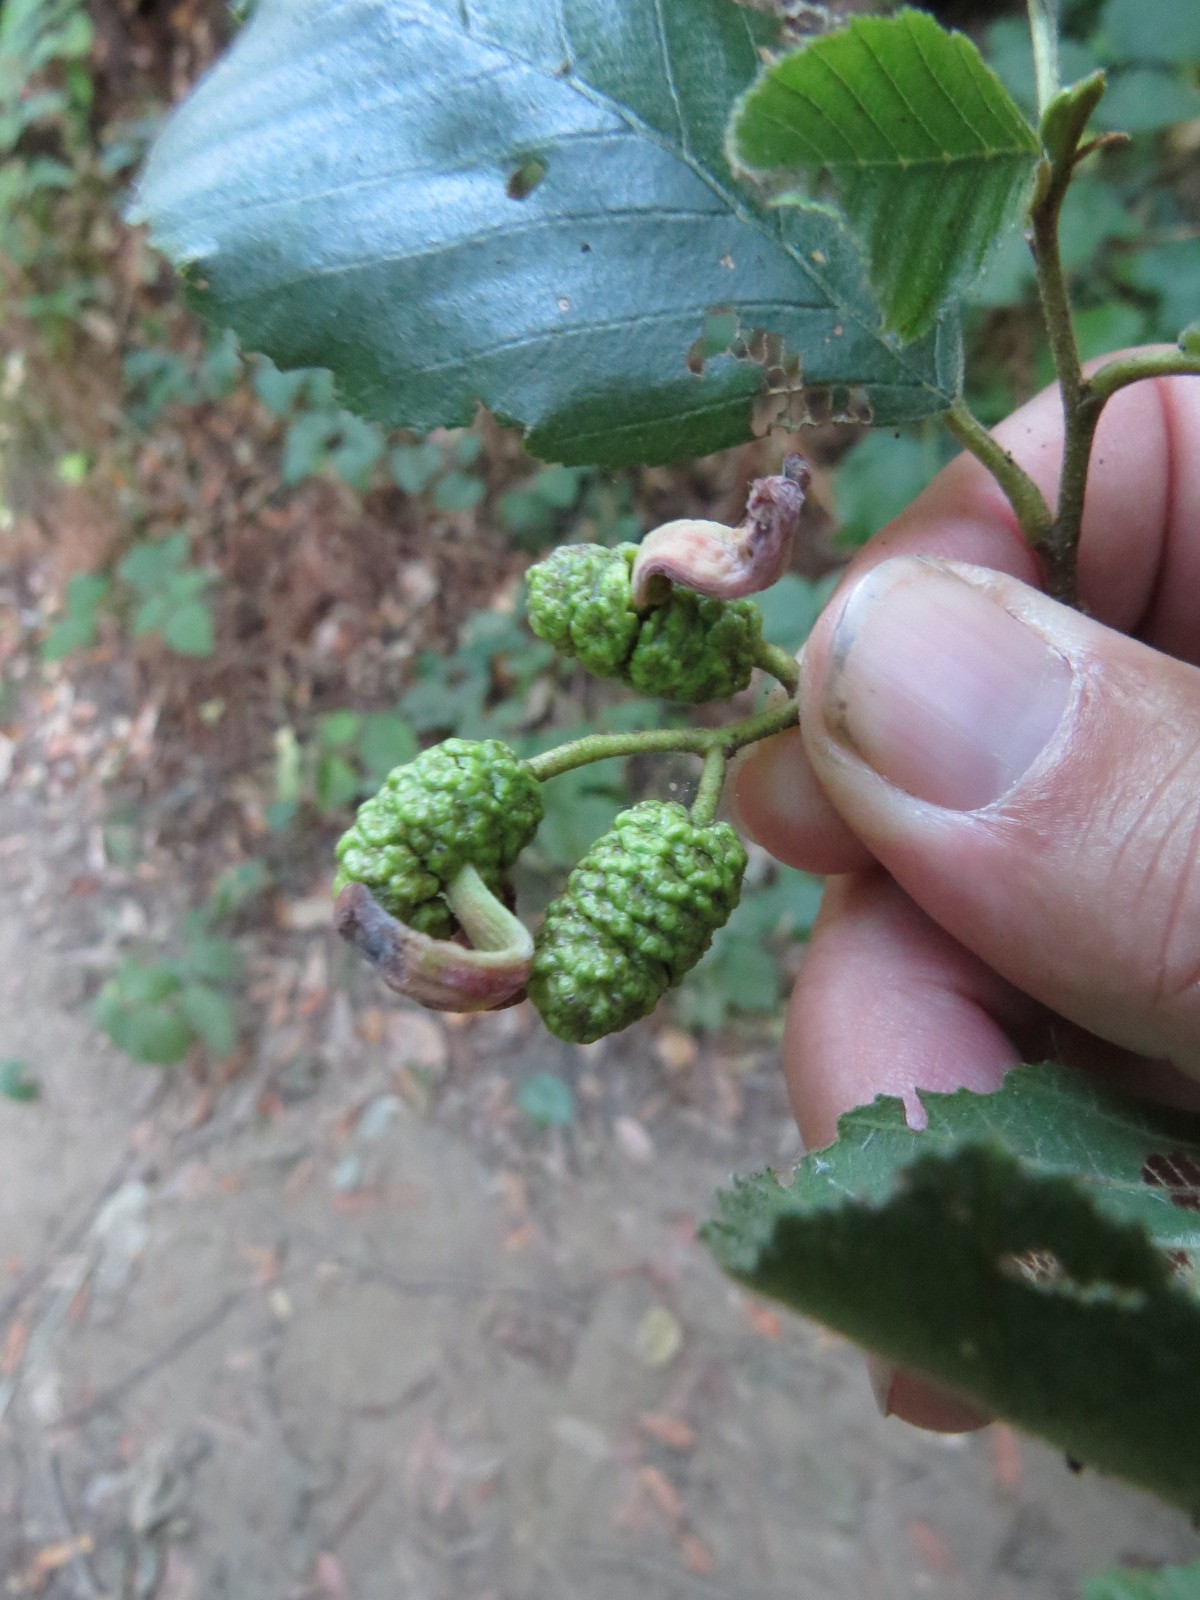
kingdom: Fungi
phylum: Ascomycota
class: Taphrinomycetes
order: Taphrinales
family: Taphrinaceae
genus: Taphrina
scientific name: Taphrina occidentalis
